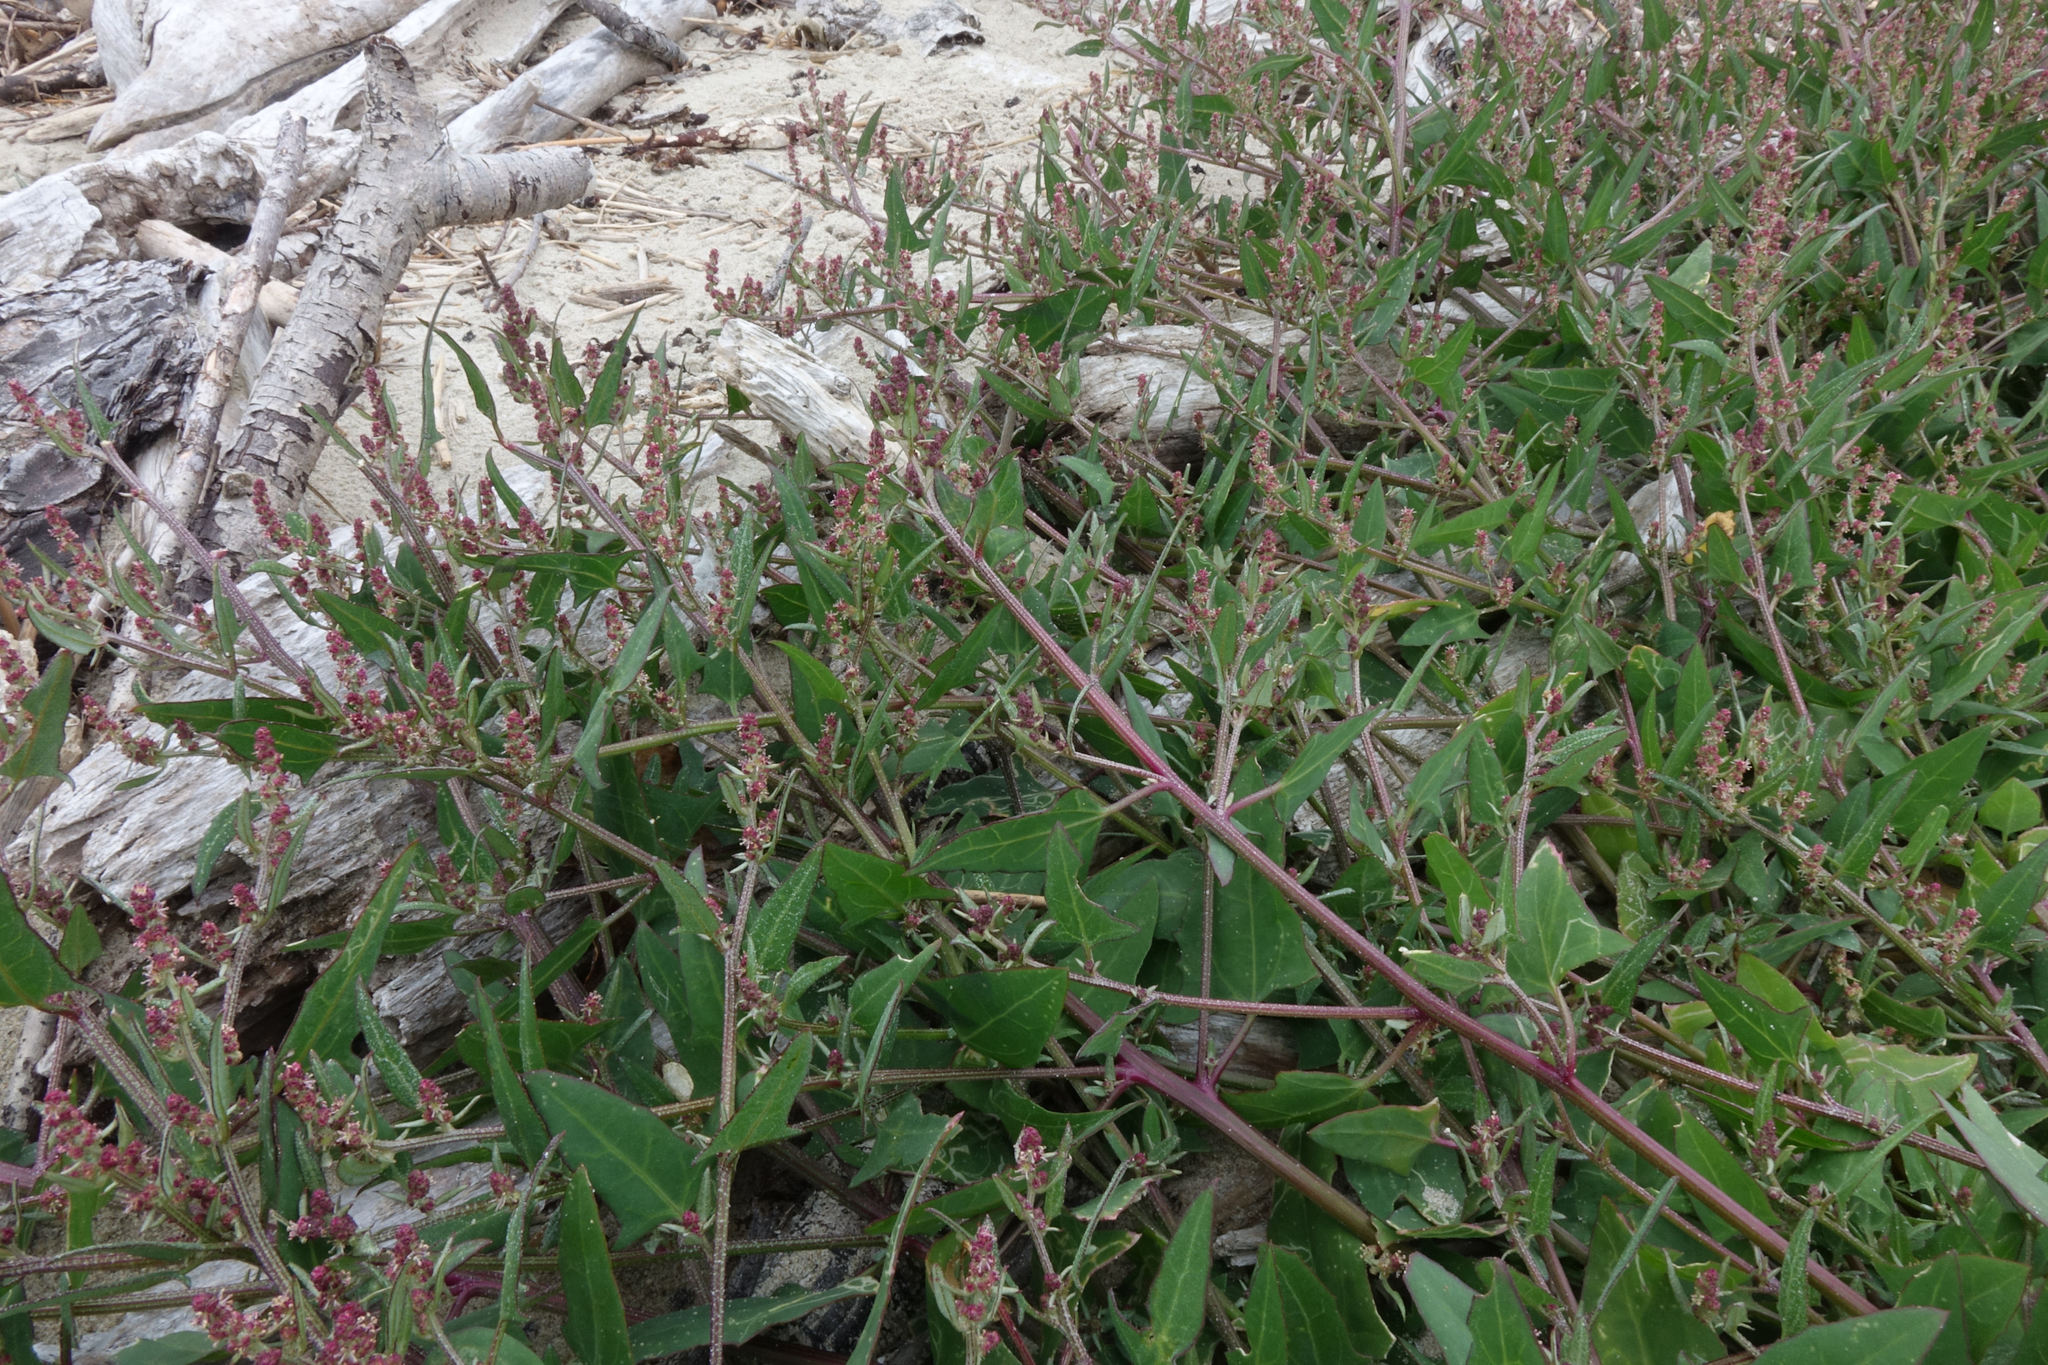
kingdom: Plantae
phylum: Tracheophyta
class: Magnoliopsida
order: Caryophyllales
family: Amaranthaceae
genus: Atriplex
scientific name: Atriplex prostrata
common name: Spear-leaved orache
